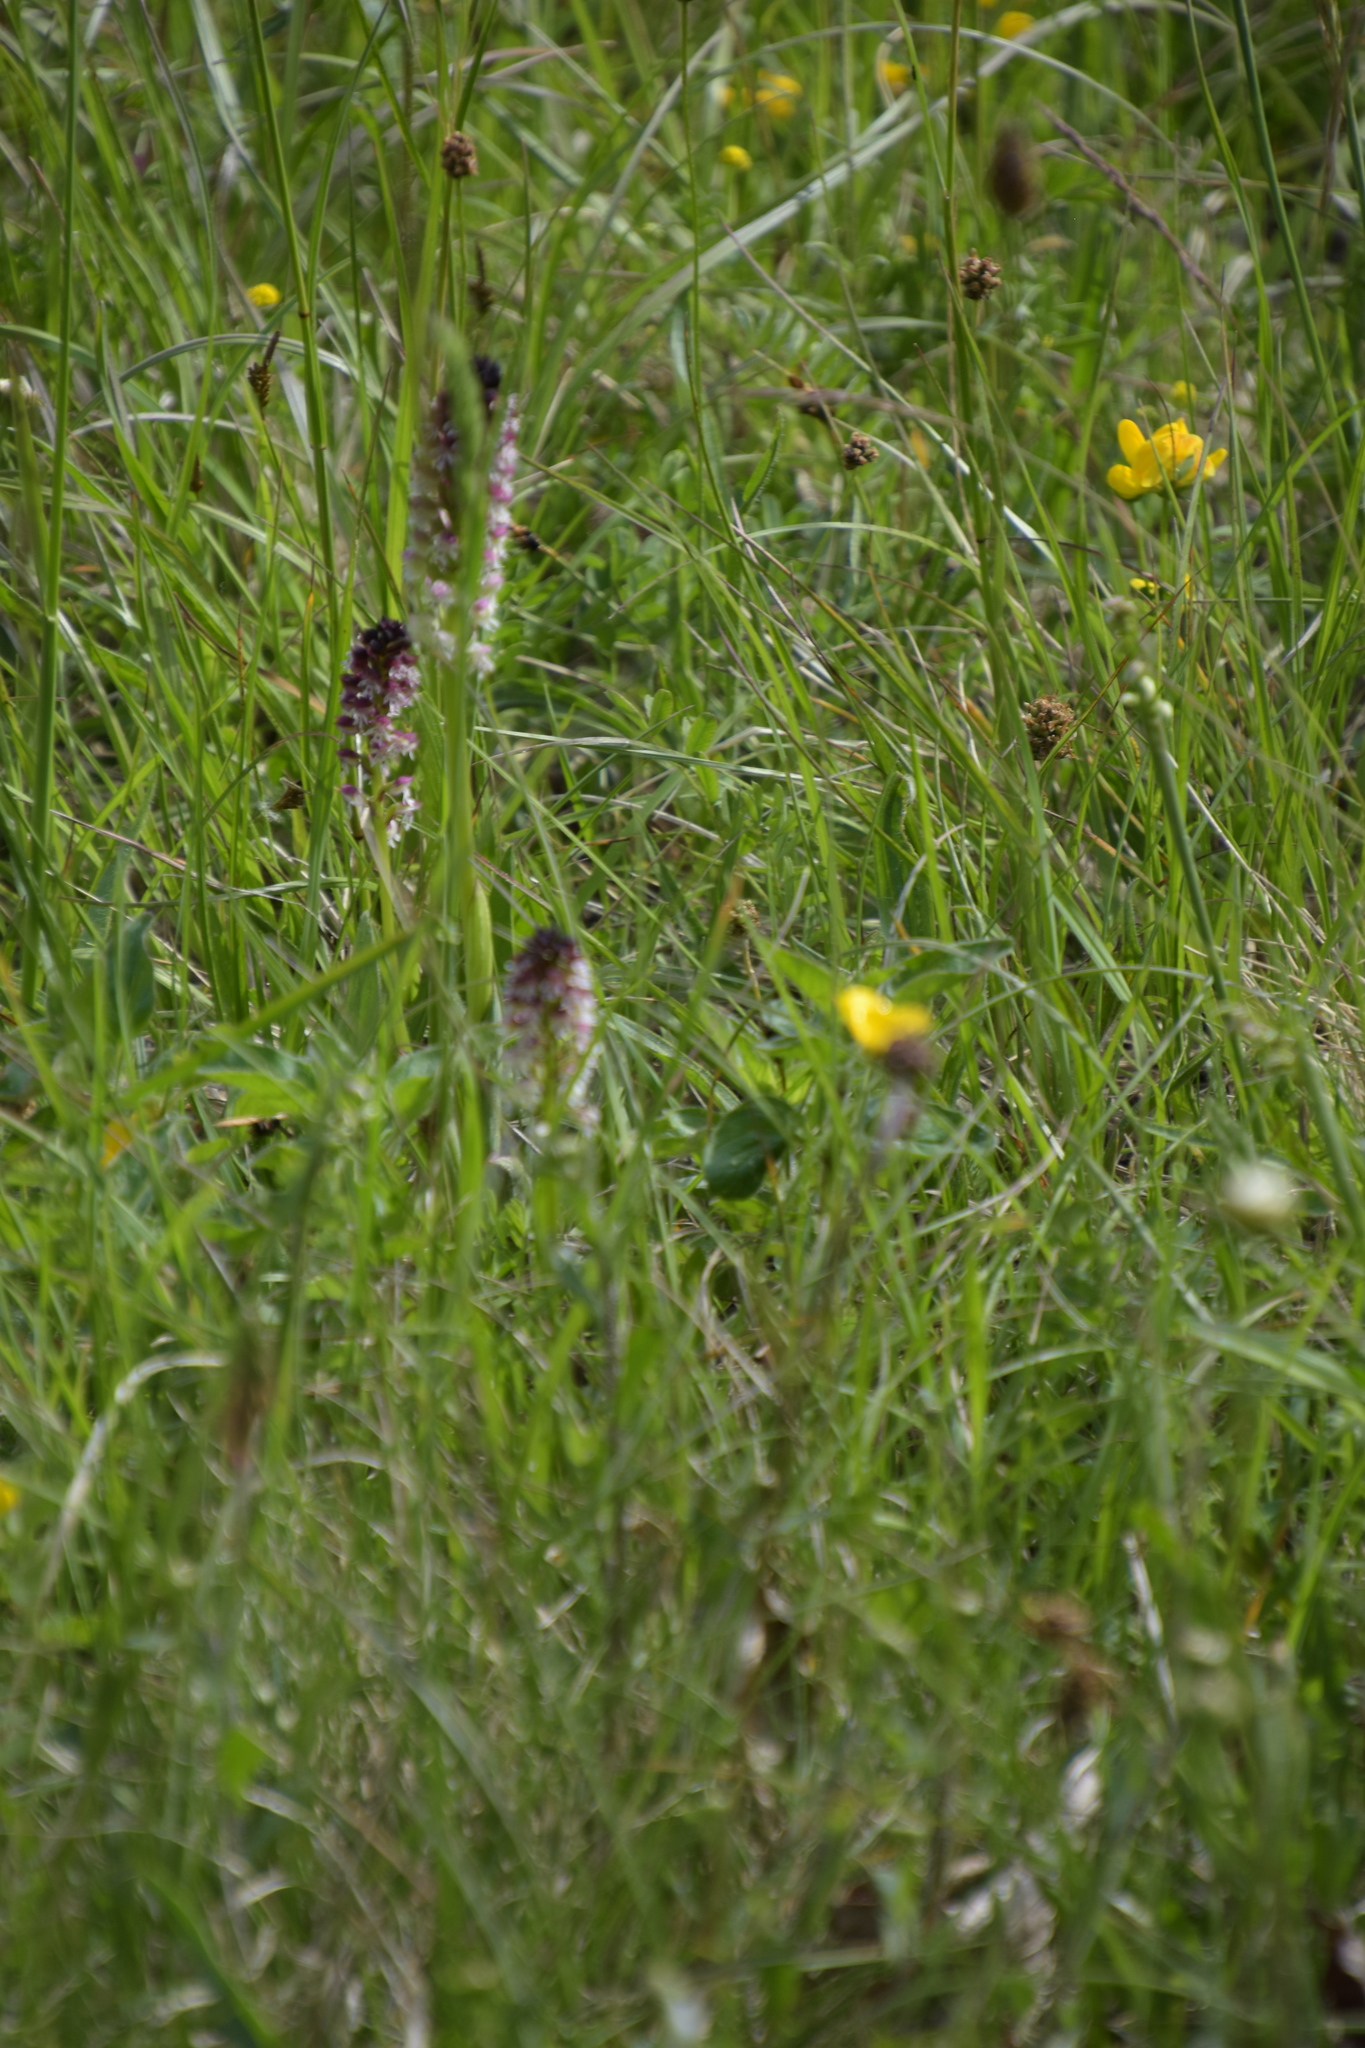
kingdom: Plantae
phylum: Tracheophyta
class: Liliopsida
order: Asparagales
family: Orchidaceae
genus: Neotinea
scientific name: Neotinea ustulata
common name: Burnt orchid
